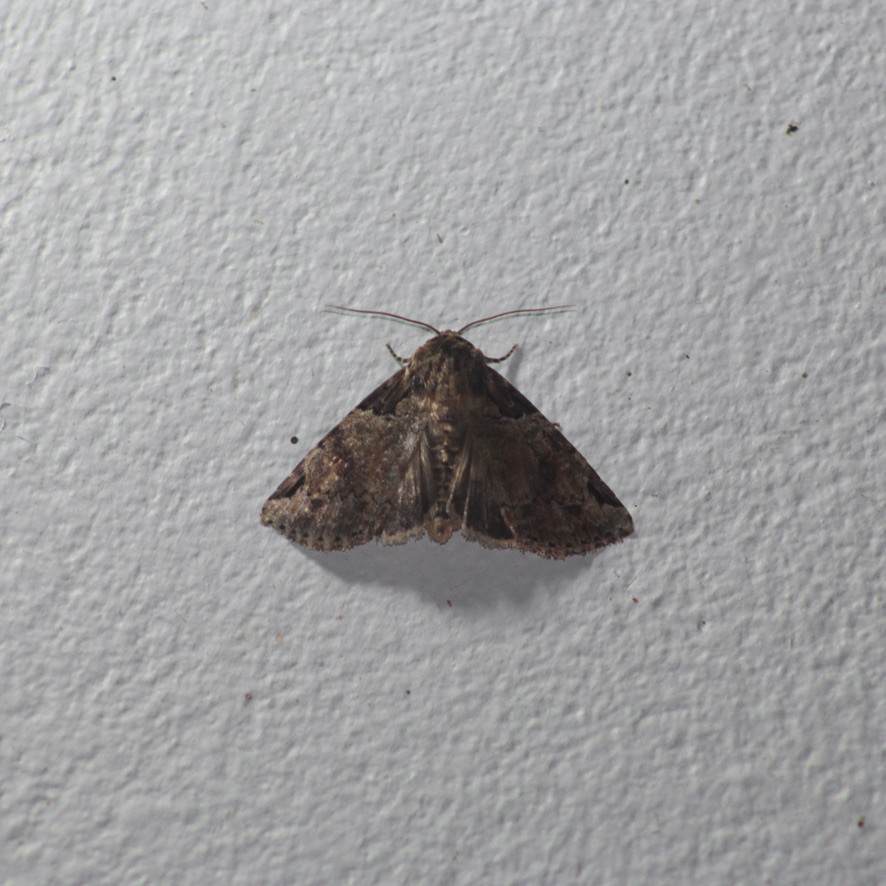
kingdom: Animalia
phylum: Arthropoda
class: Insecta
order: Lepidoptera
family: Noctuidae
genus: Stibaera
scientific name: Stibaera curvilineata
